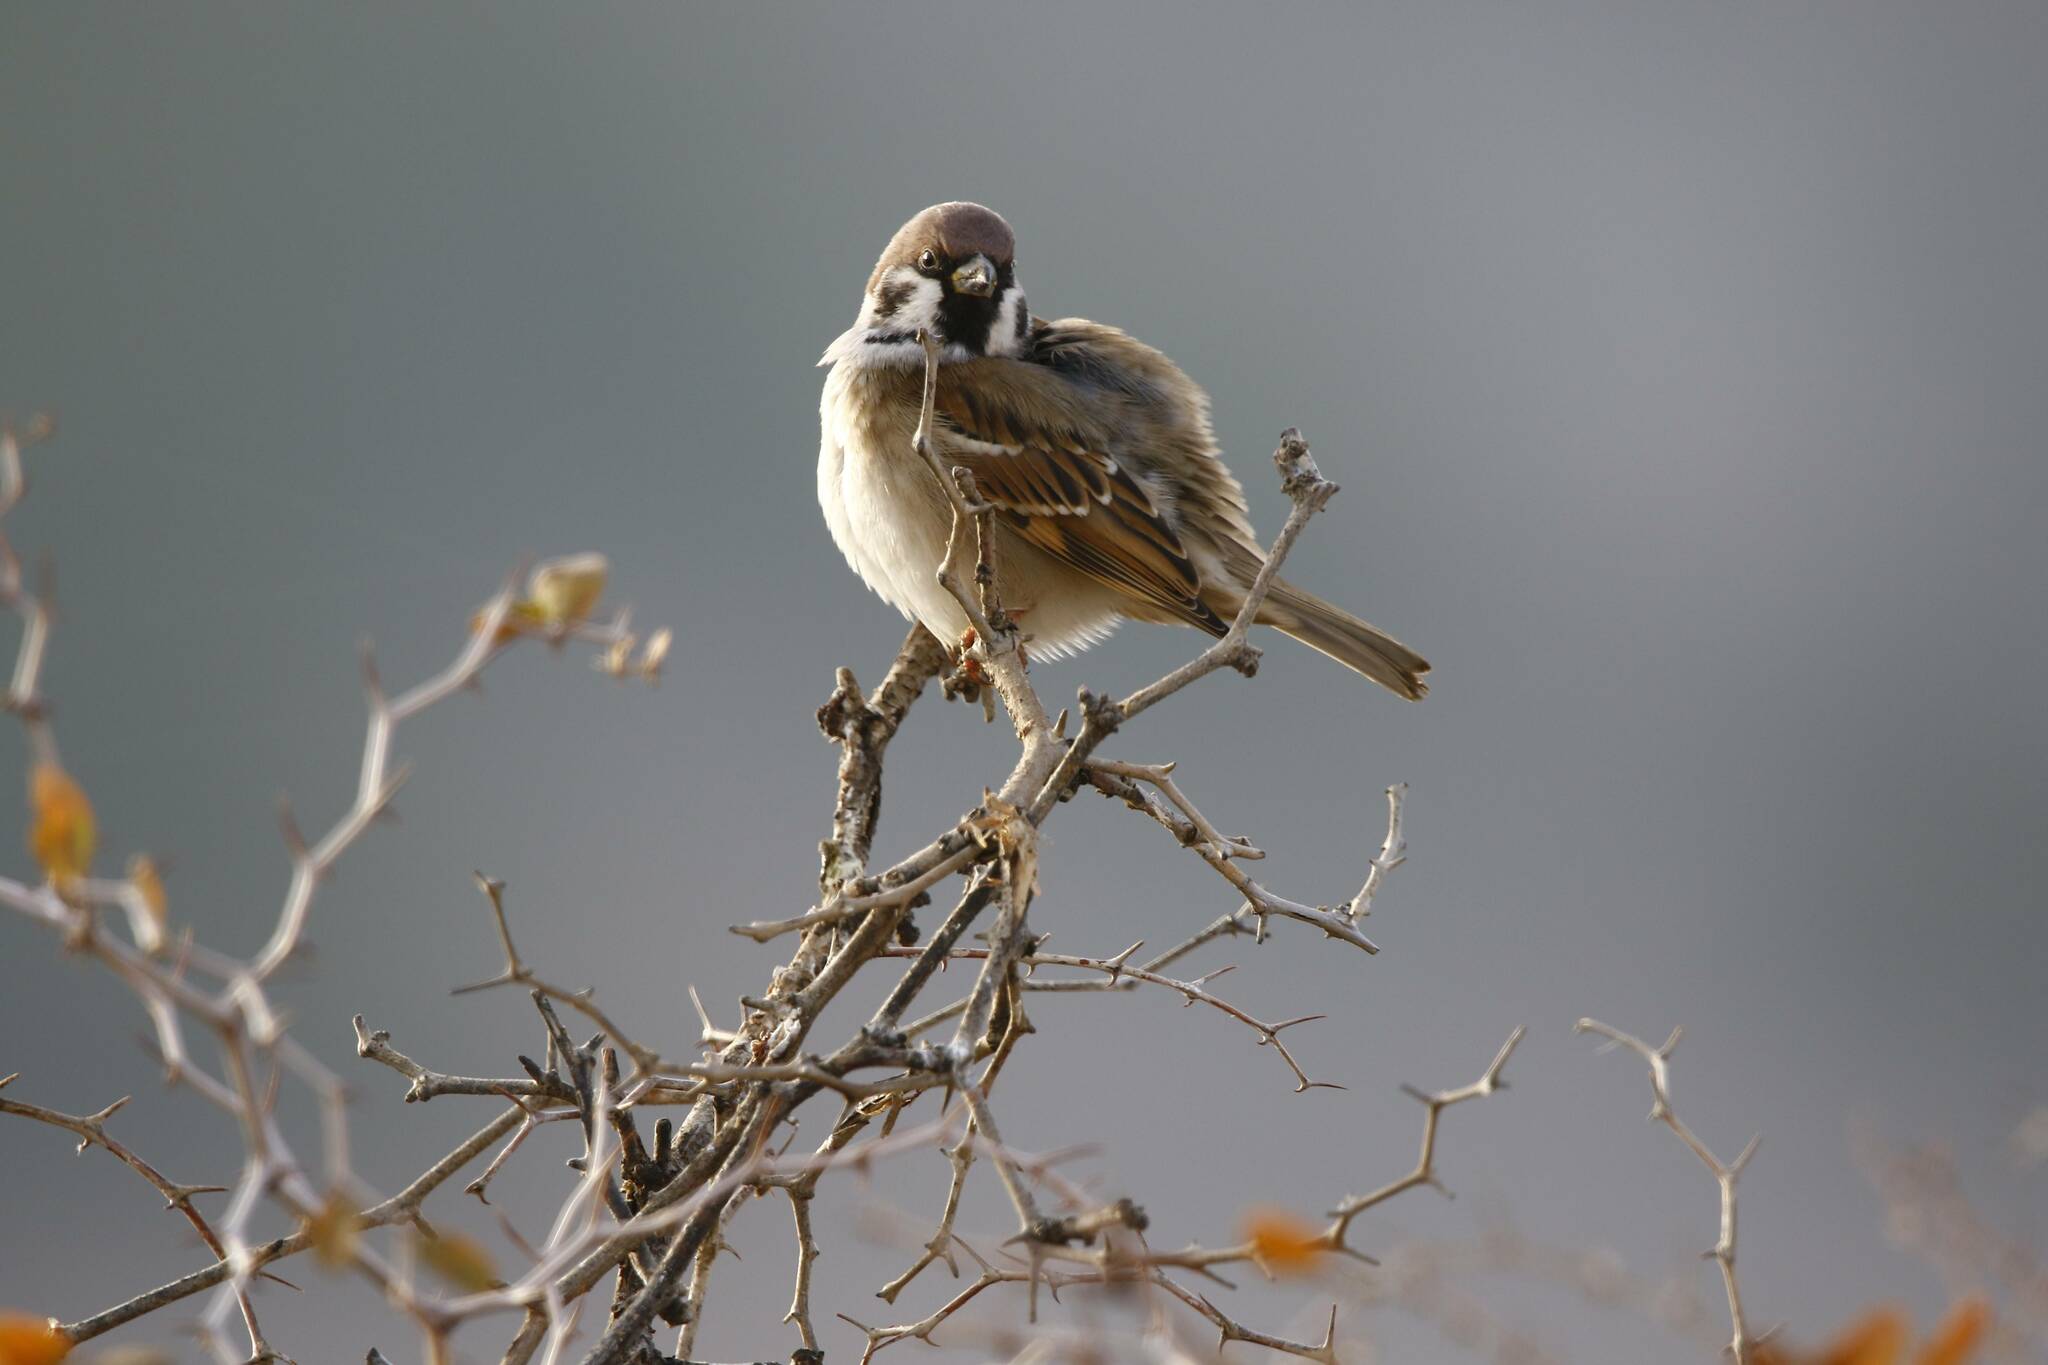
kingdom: Animalia
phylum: Chordata
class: Aves
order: Passeriformes
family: Passeridae
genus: Passer
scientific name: Passer montanus
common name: Eurasian tree sparrow
